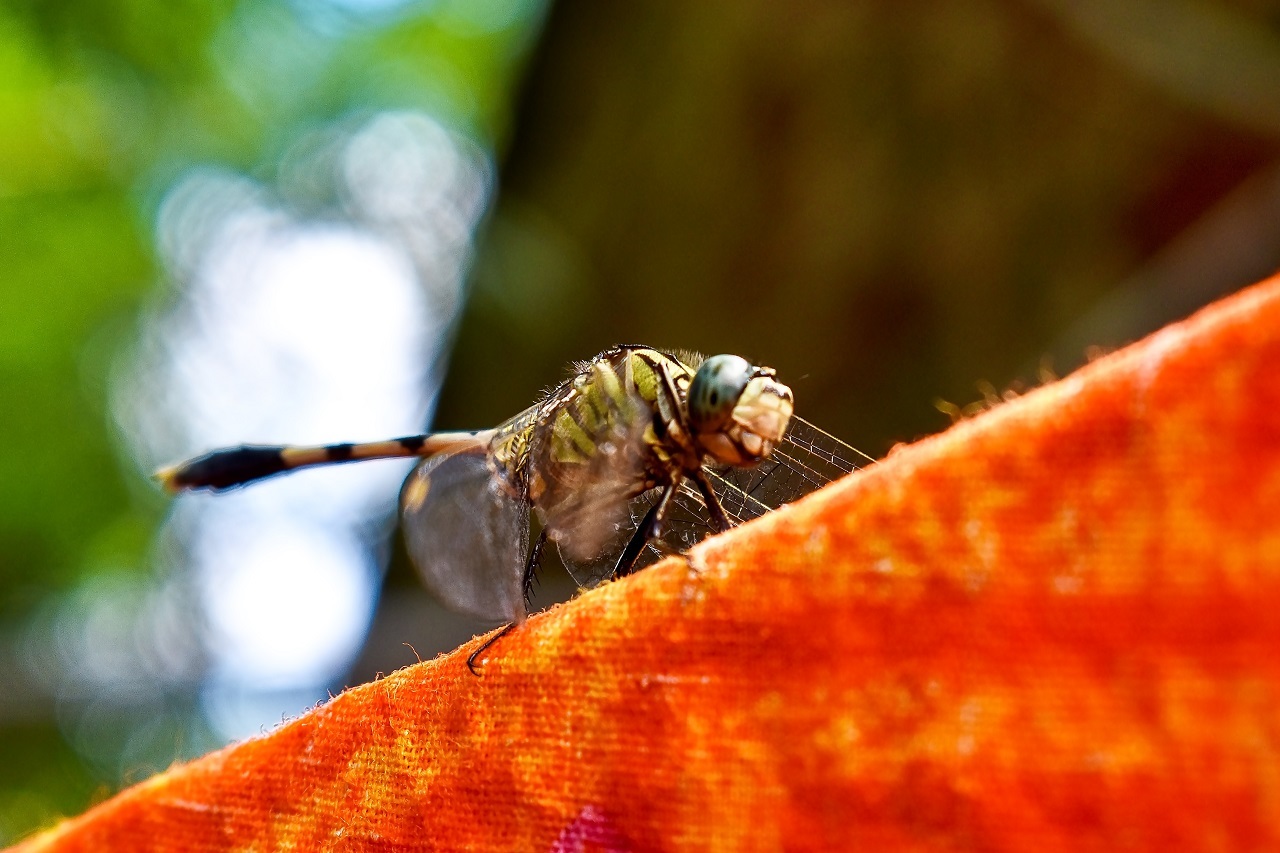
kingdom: Animalia
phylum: Arthropoda
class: Insecta
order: Odonata
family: Libellulidae
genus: Orthetrum
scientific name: Orthetrum sabina
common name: Slender skimmer
